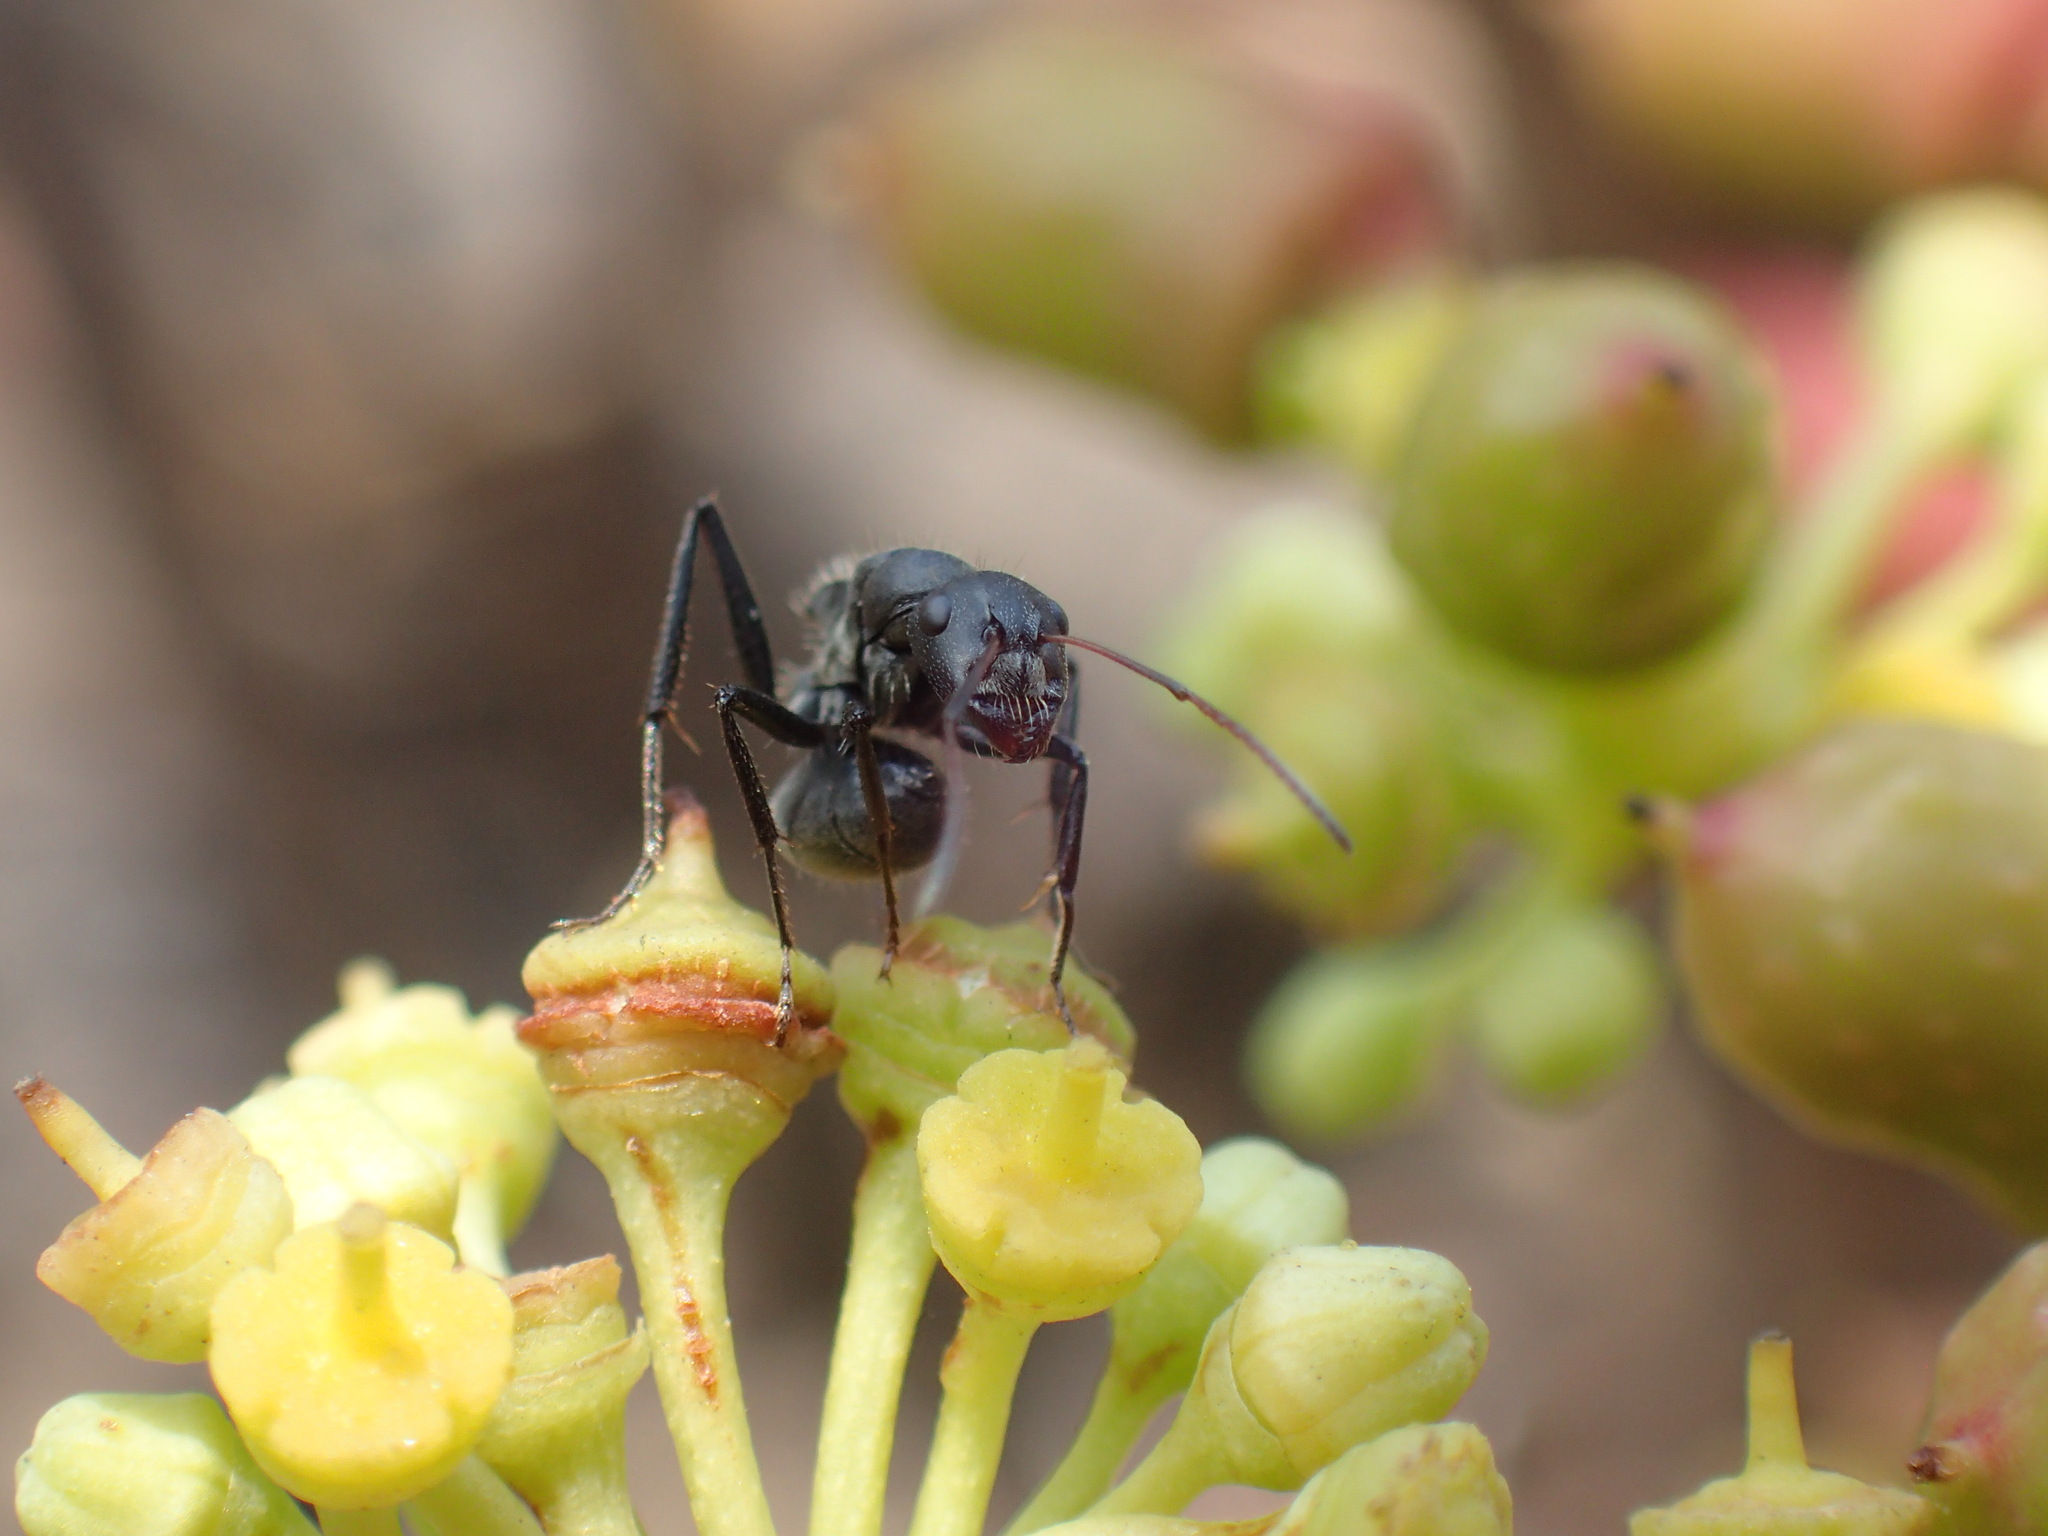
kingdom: Animalia
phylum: Arthropoda
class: Insecta
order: Hymenoptera
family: Formicidae
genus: Camponotus
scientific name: Camponotus sericeus
